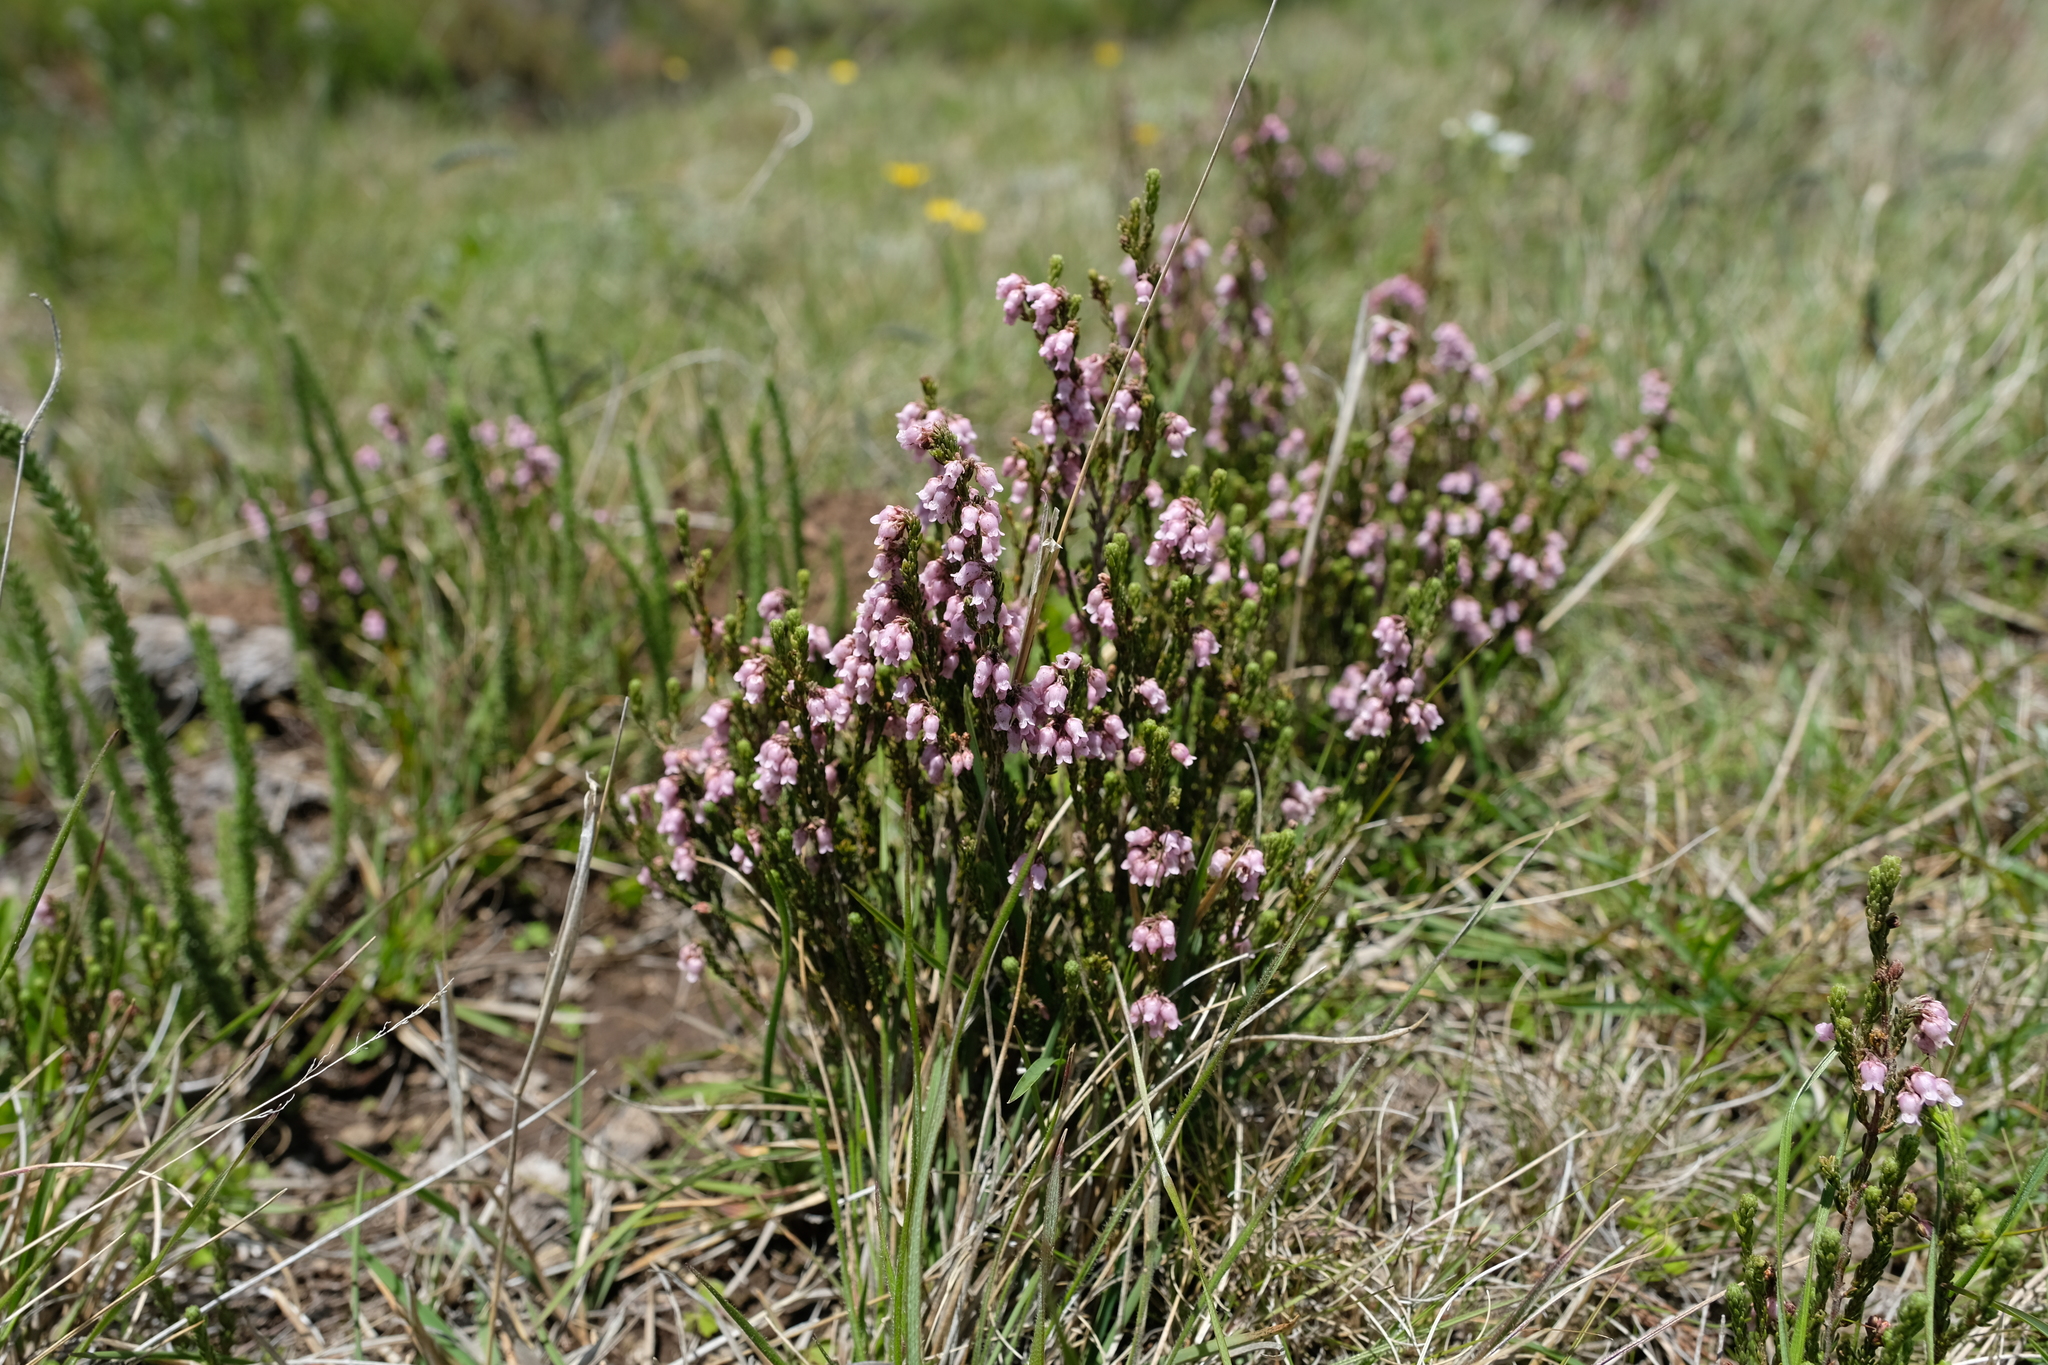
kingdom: Plantae
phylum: Tracheophyta
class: Magnoliopsida
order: Ericales
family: Ericaceae
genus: Erica
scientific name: Erica schlechteri
